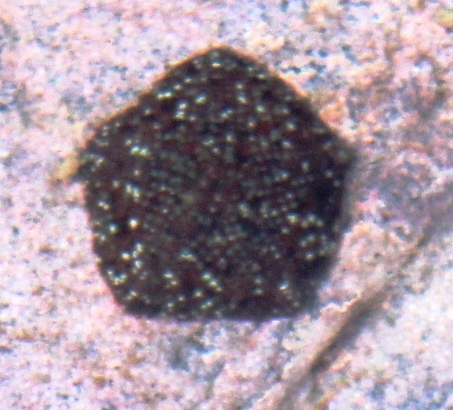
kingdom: Animalia
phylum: Echinodermata
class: Asteroidea
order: Valvatida
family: Asterinidae
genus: Parvulastra
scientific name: Parvulastra exigua
